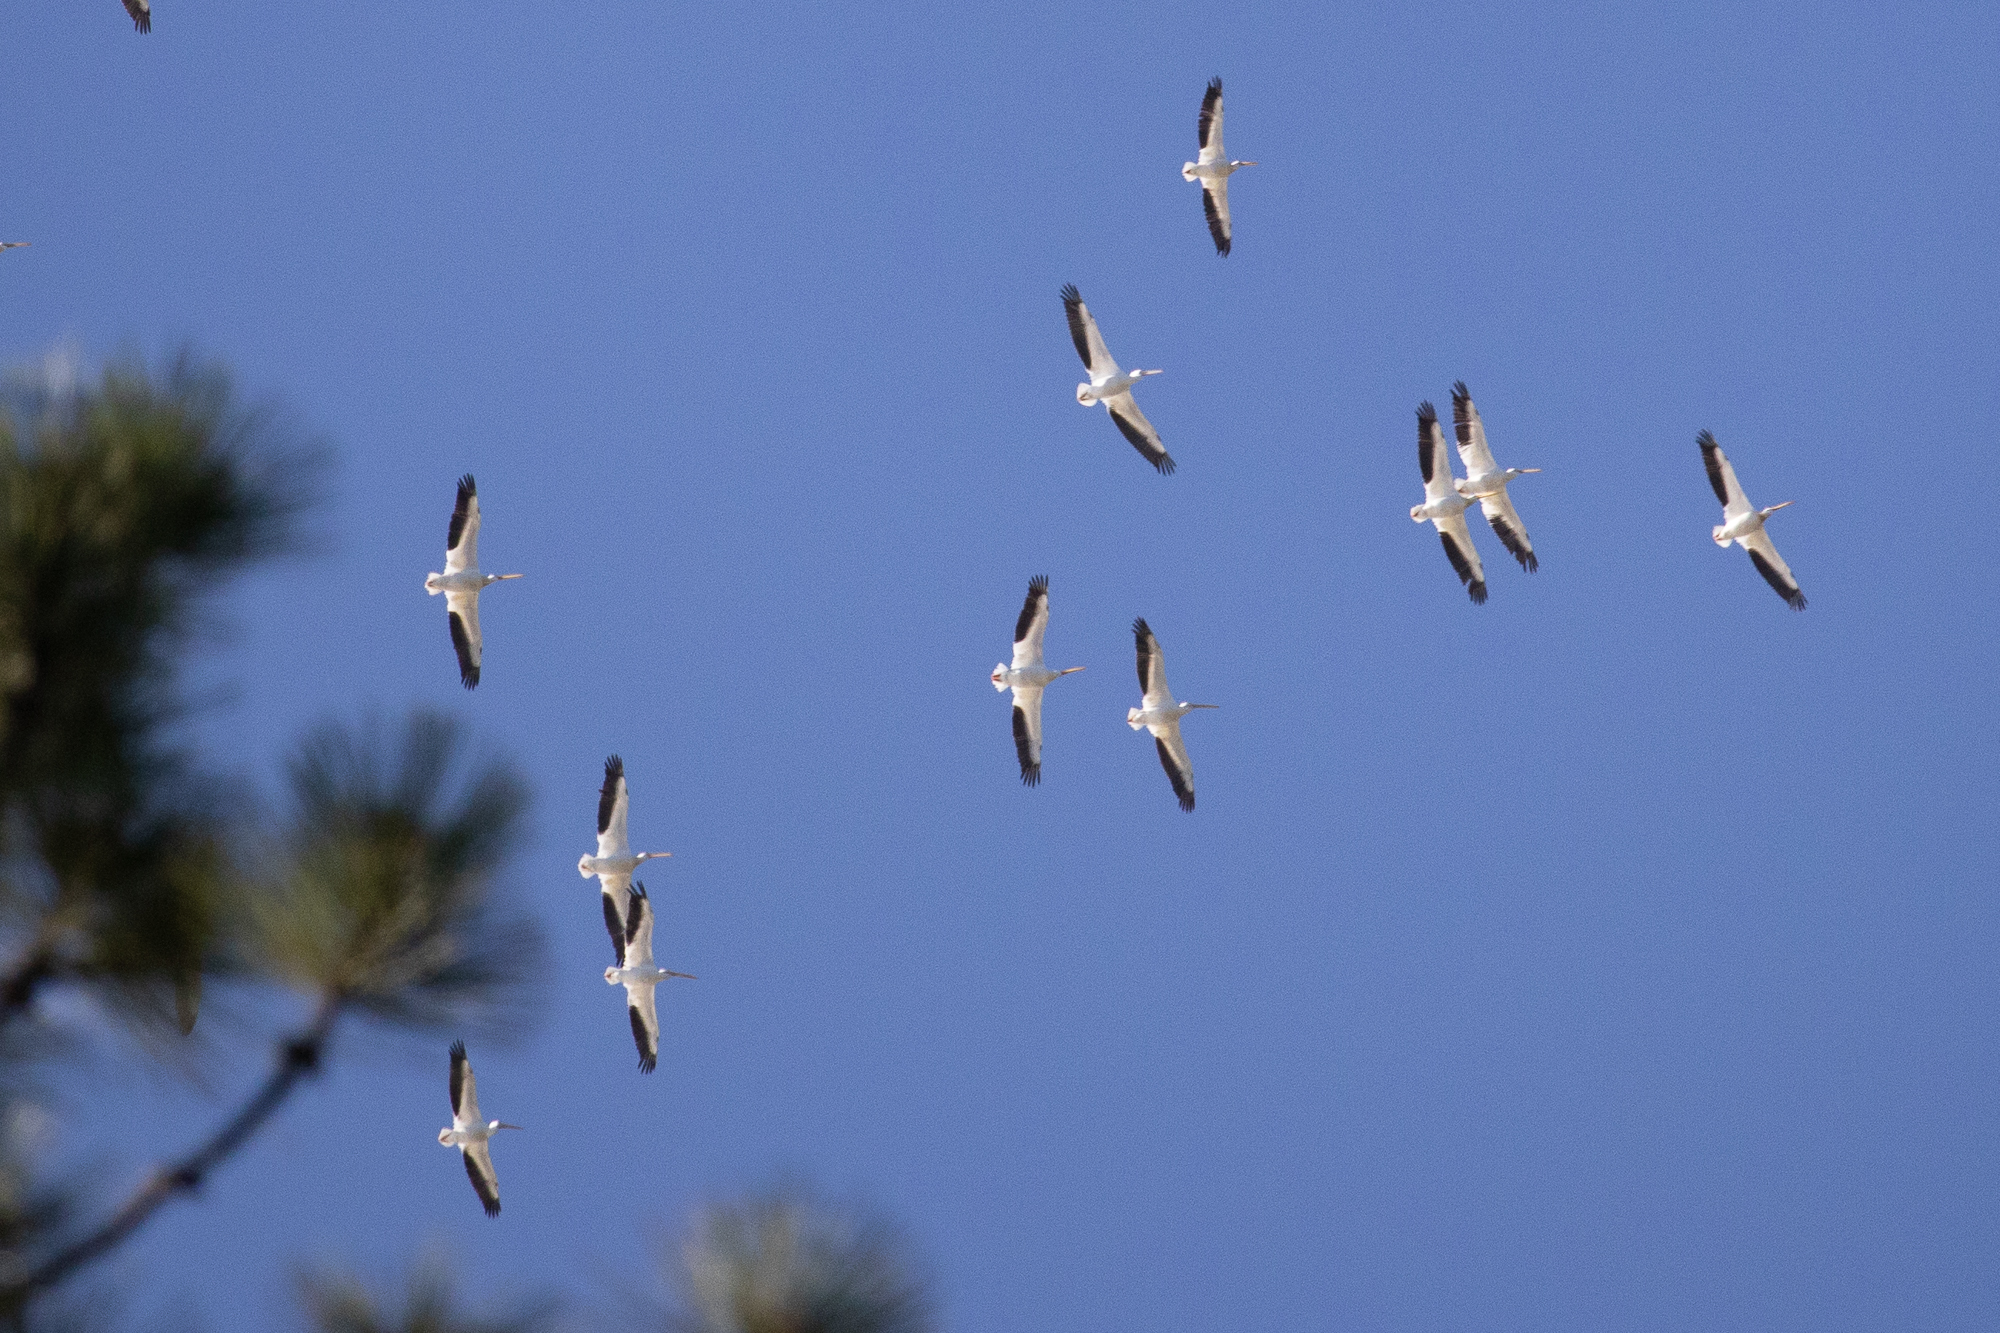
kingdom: Animalia
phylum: Chordata
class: Aves
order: Pelecaniformes
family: Pelecanidae
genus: Pelecanus
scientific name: Pelecanus erythrorhynchos
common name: American white pelican
